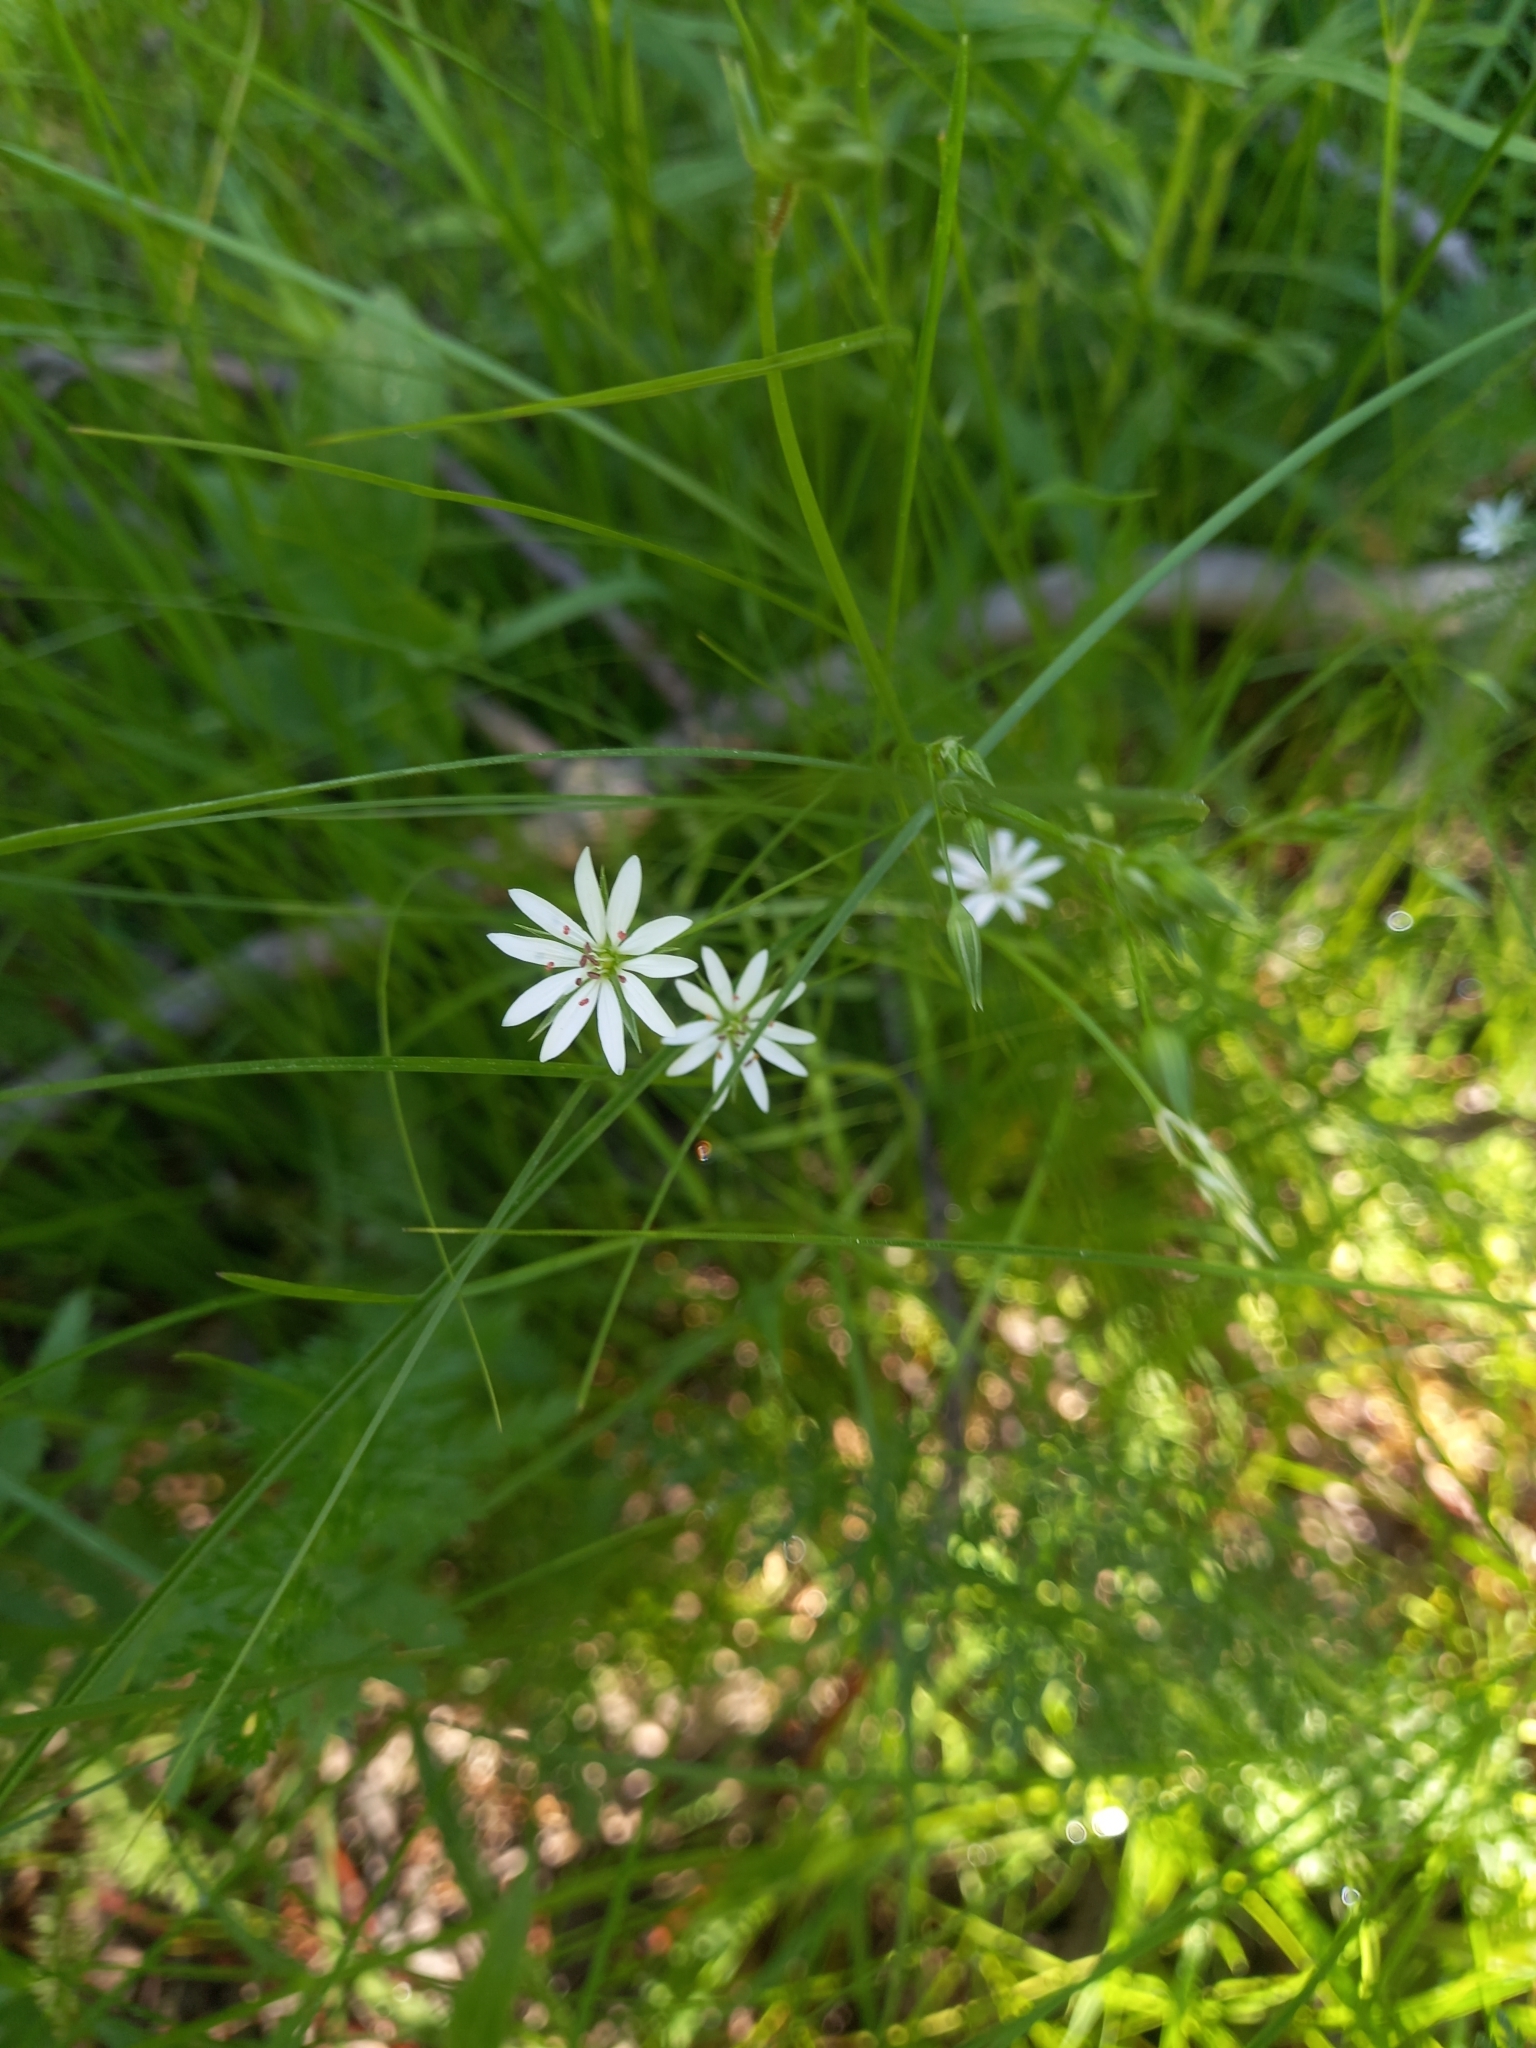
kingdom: Plantae
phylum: Tracheophyta
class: Magnoliopsida
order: Caryophyllales
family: Caryophyllaceae
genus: Stellaria
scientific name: Stellaria graminea
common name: Grass-like starwort
